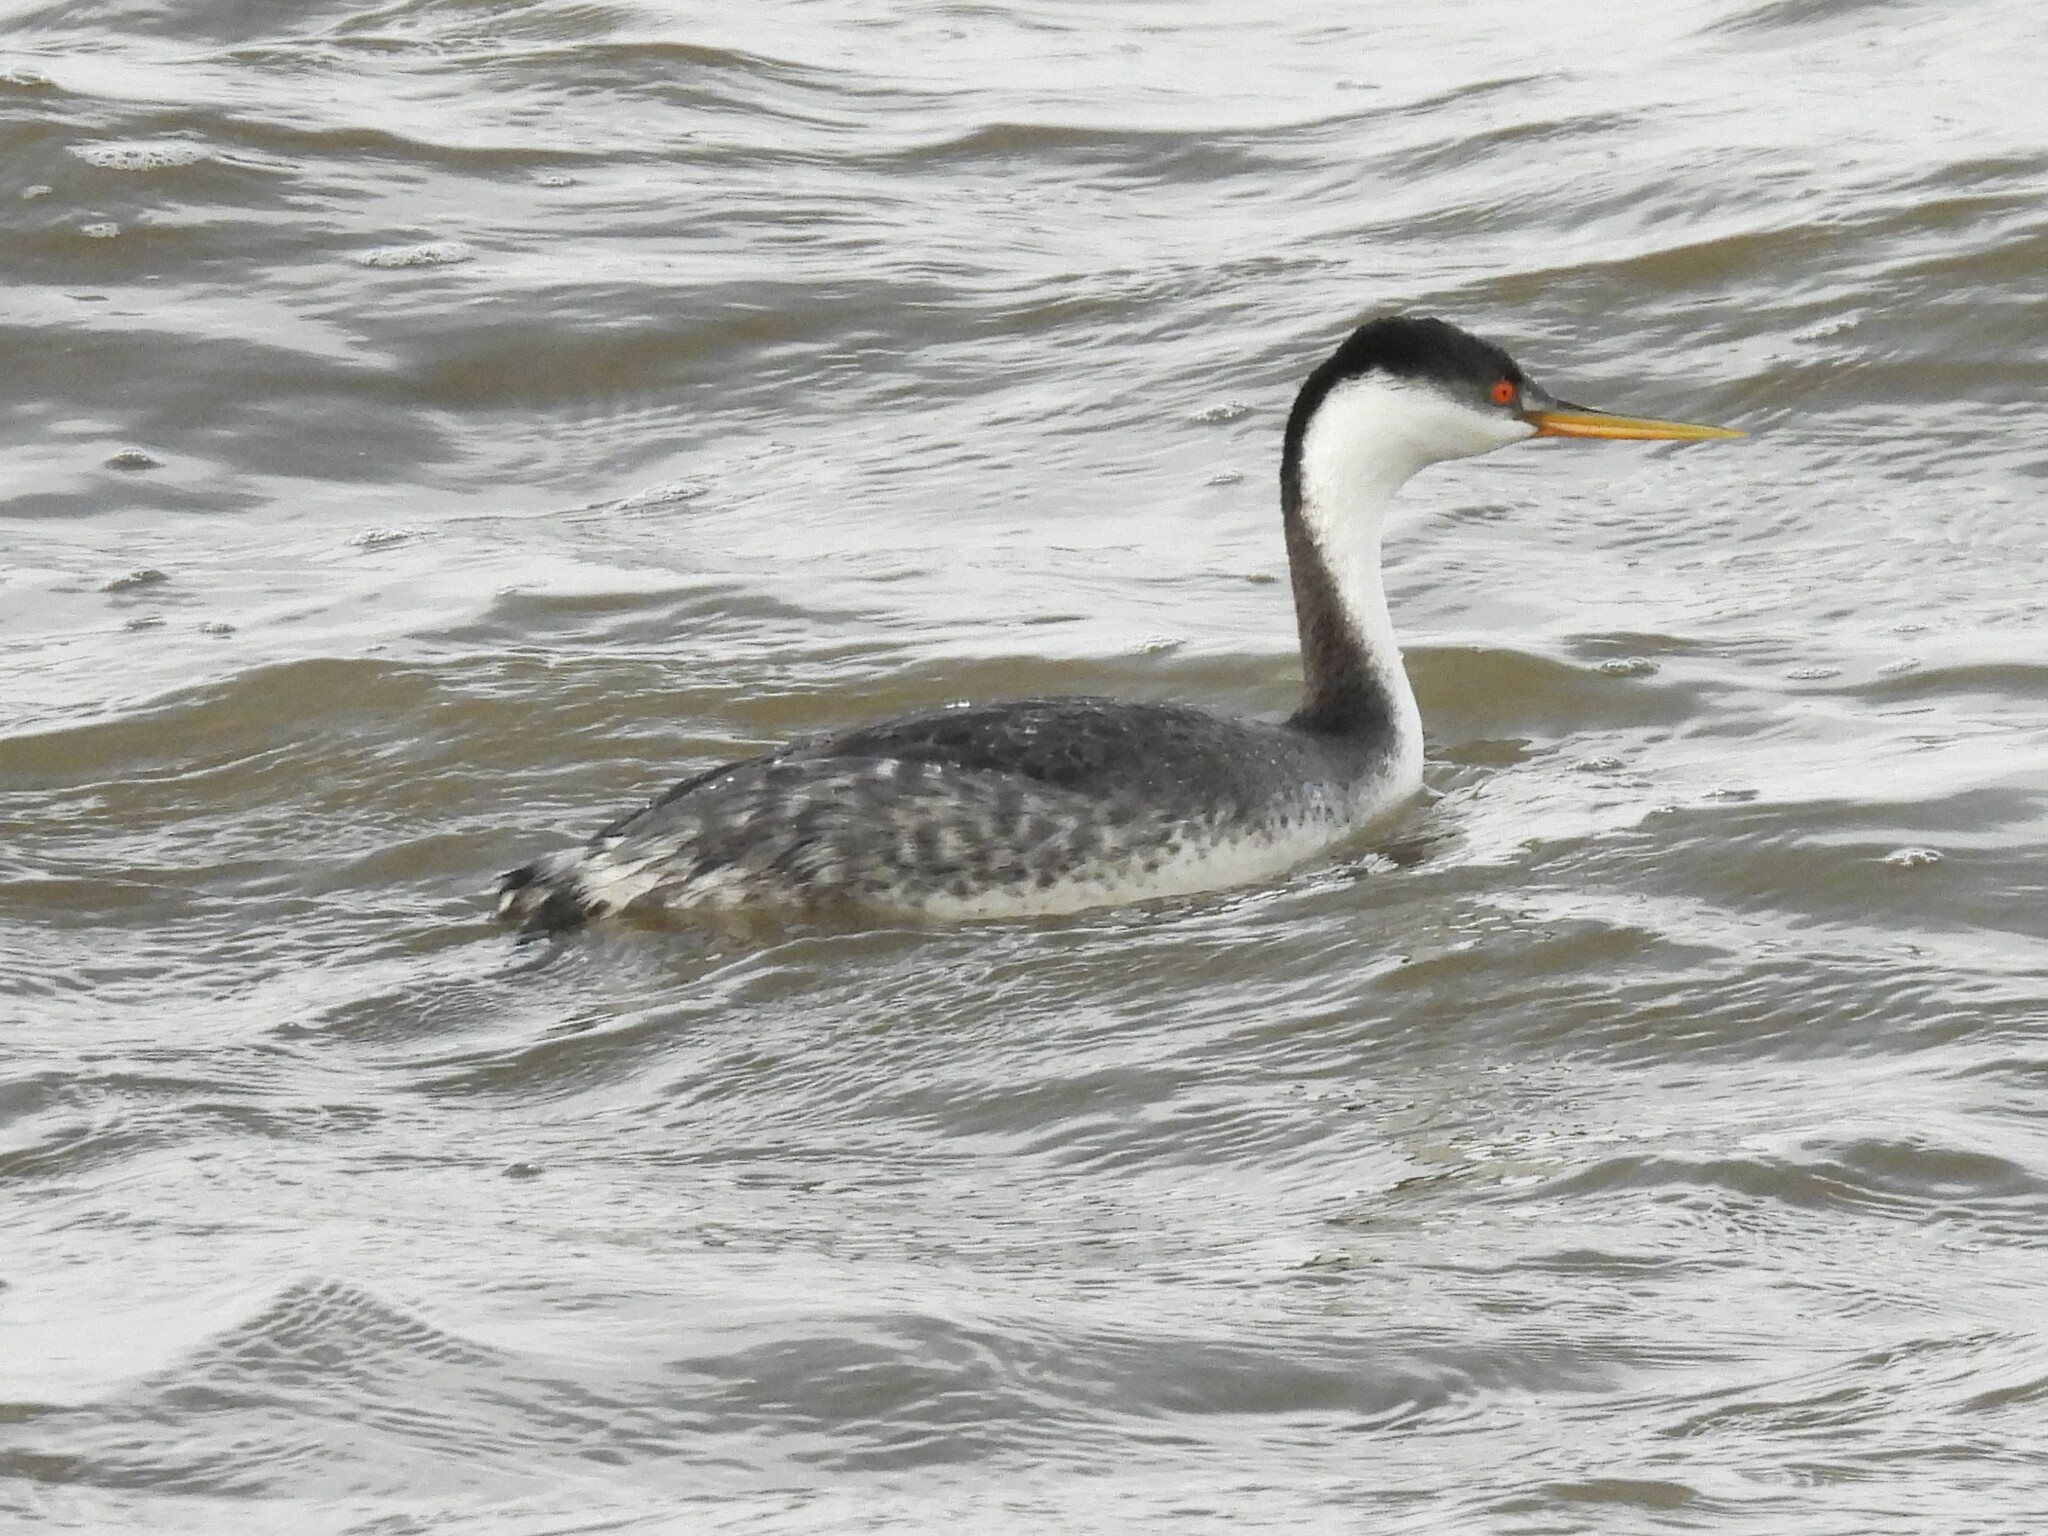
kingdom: Animalia
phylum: Chordata
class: Aves
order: Podicipediformes
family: Podicipedidae
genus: Aechmophorus
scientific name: Aechmophorus occidentalis
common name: Western grebe
